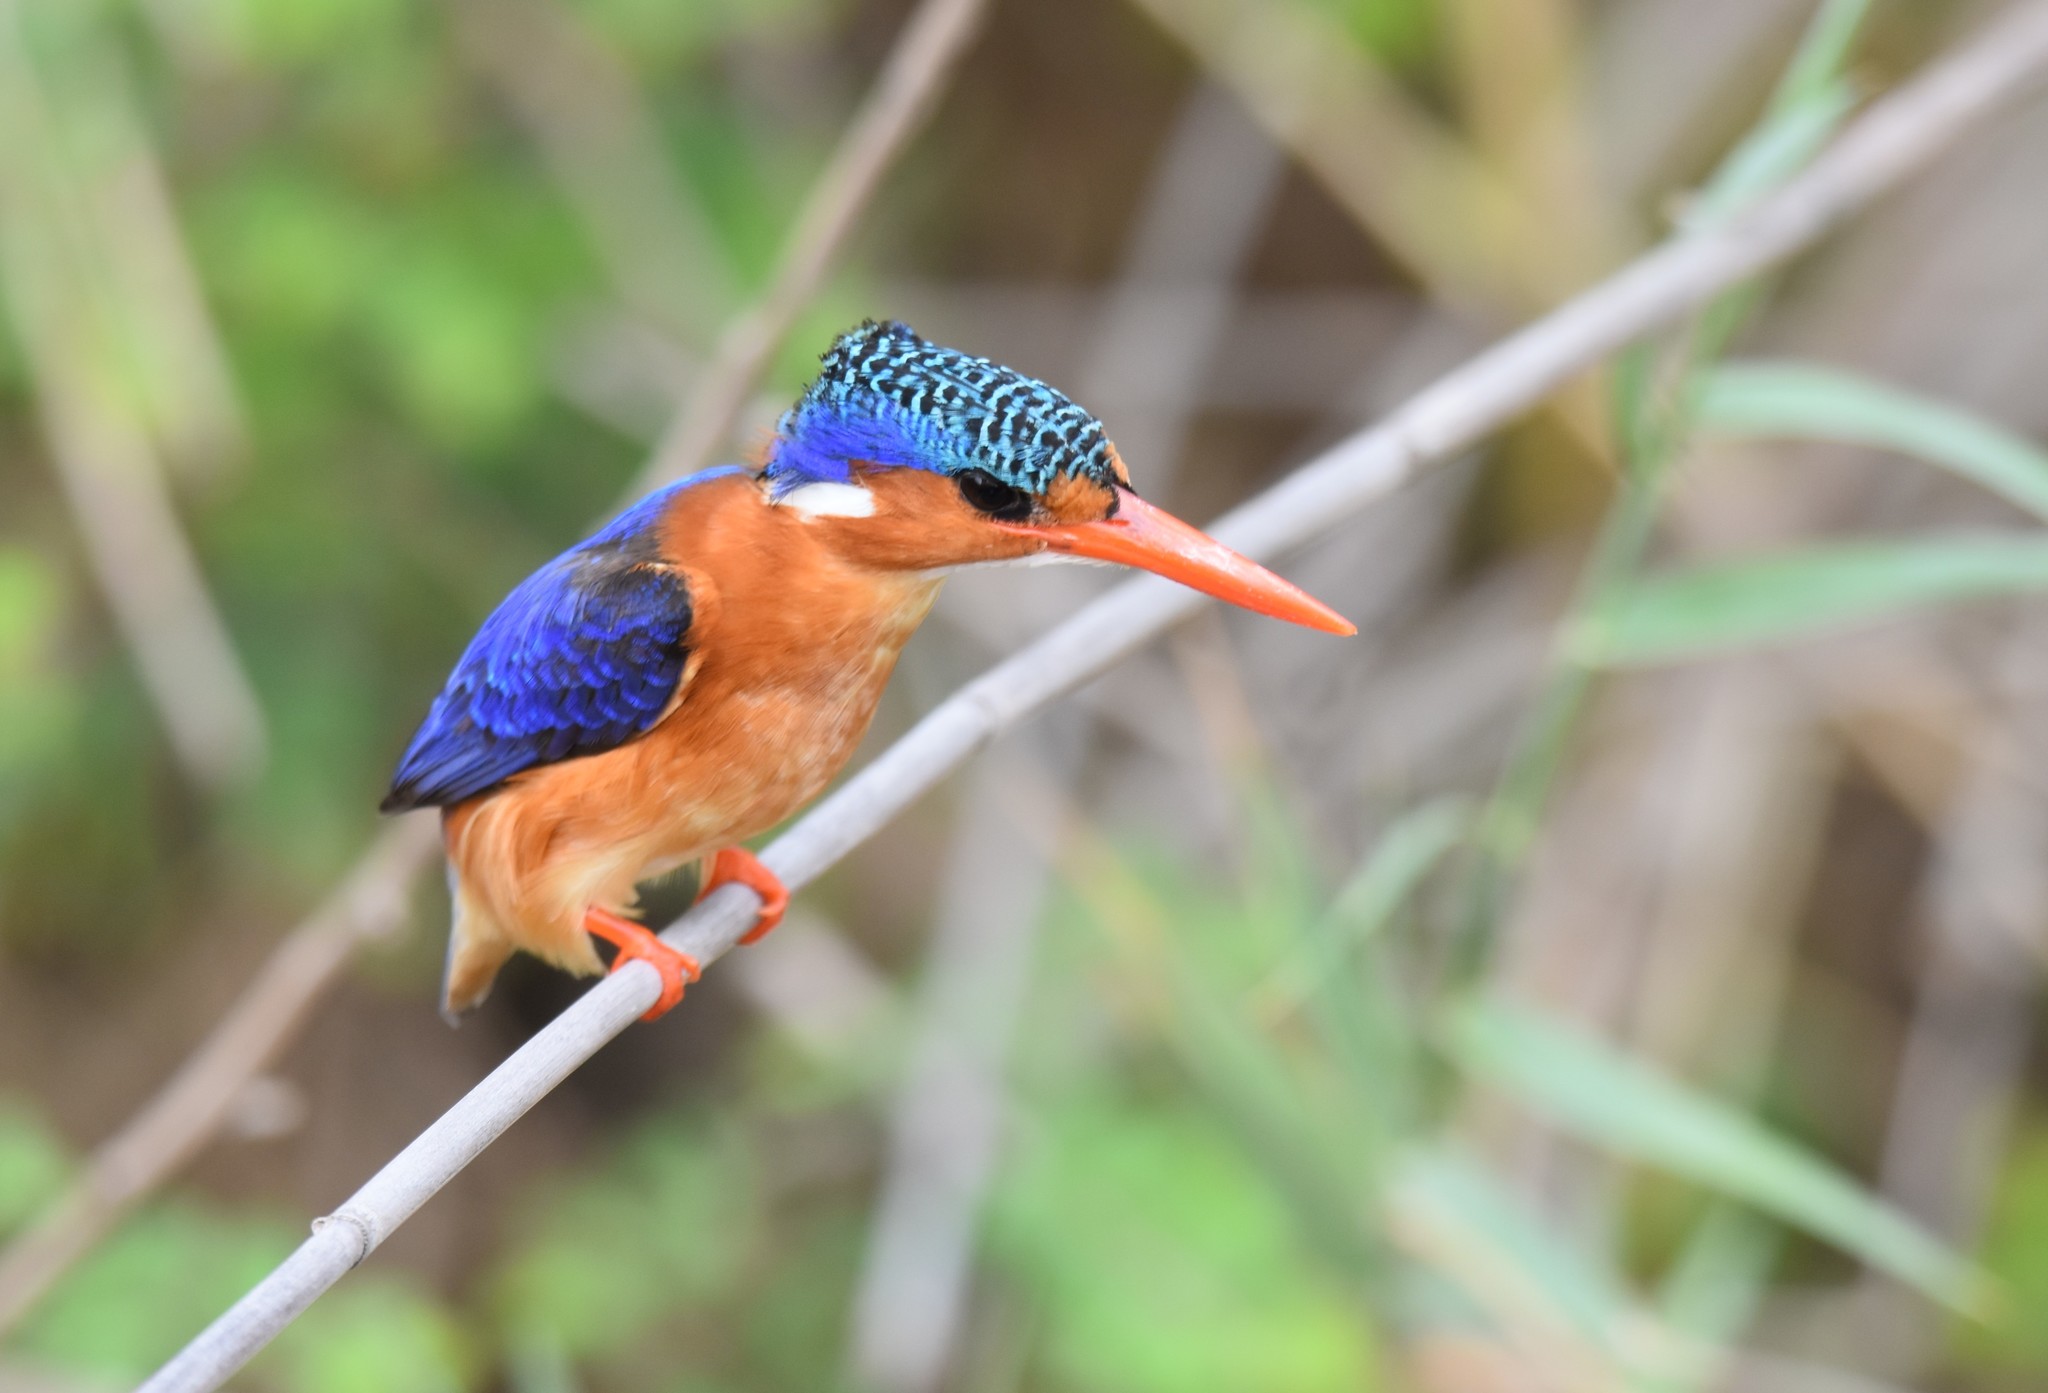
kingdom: Animalia
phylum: Chordata
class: Aves
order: Coraciiformes
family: Alcedinidae
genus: Corythornis
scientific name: Corythornis cristatus
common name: Malachite kingfisher
